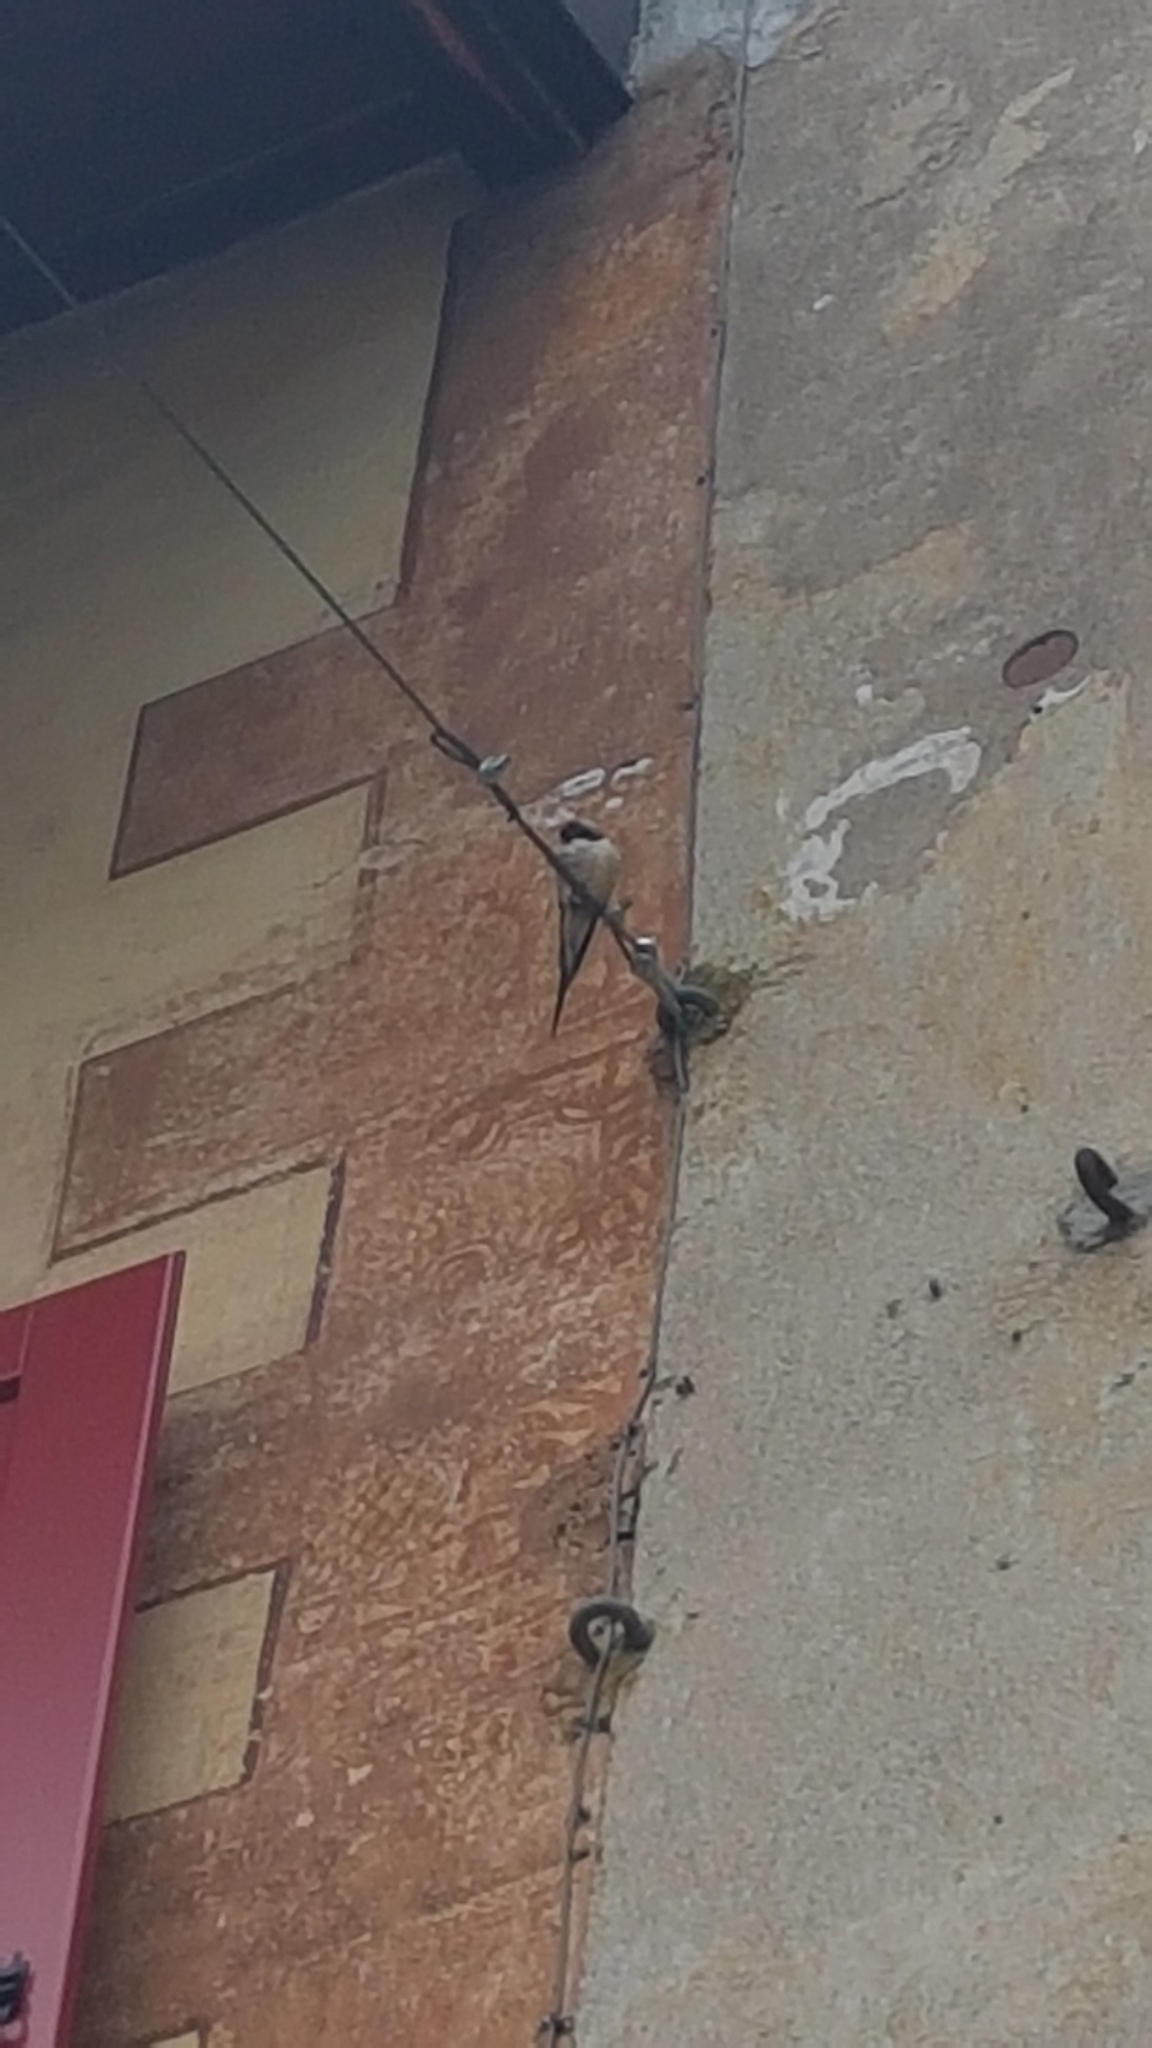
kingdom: Animalia
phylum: Chordata
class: Aves
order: Passeriformes
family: Hirundinidae
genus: Hirundo
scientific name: Hirundo rustica
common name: Barn swallow
